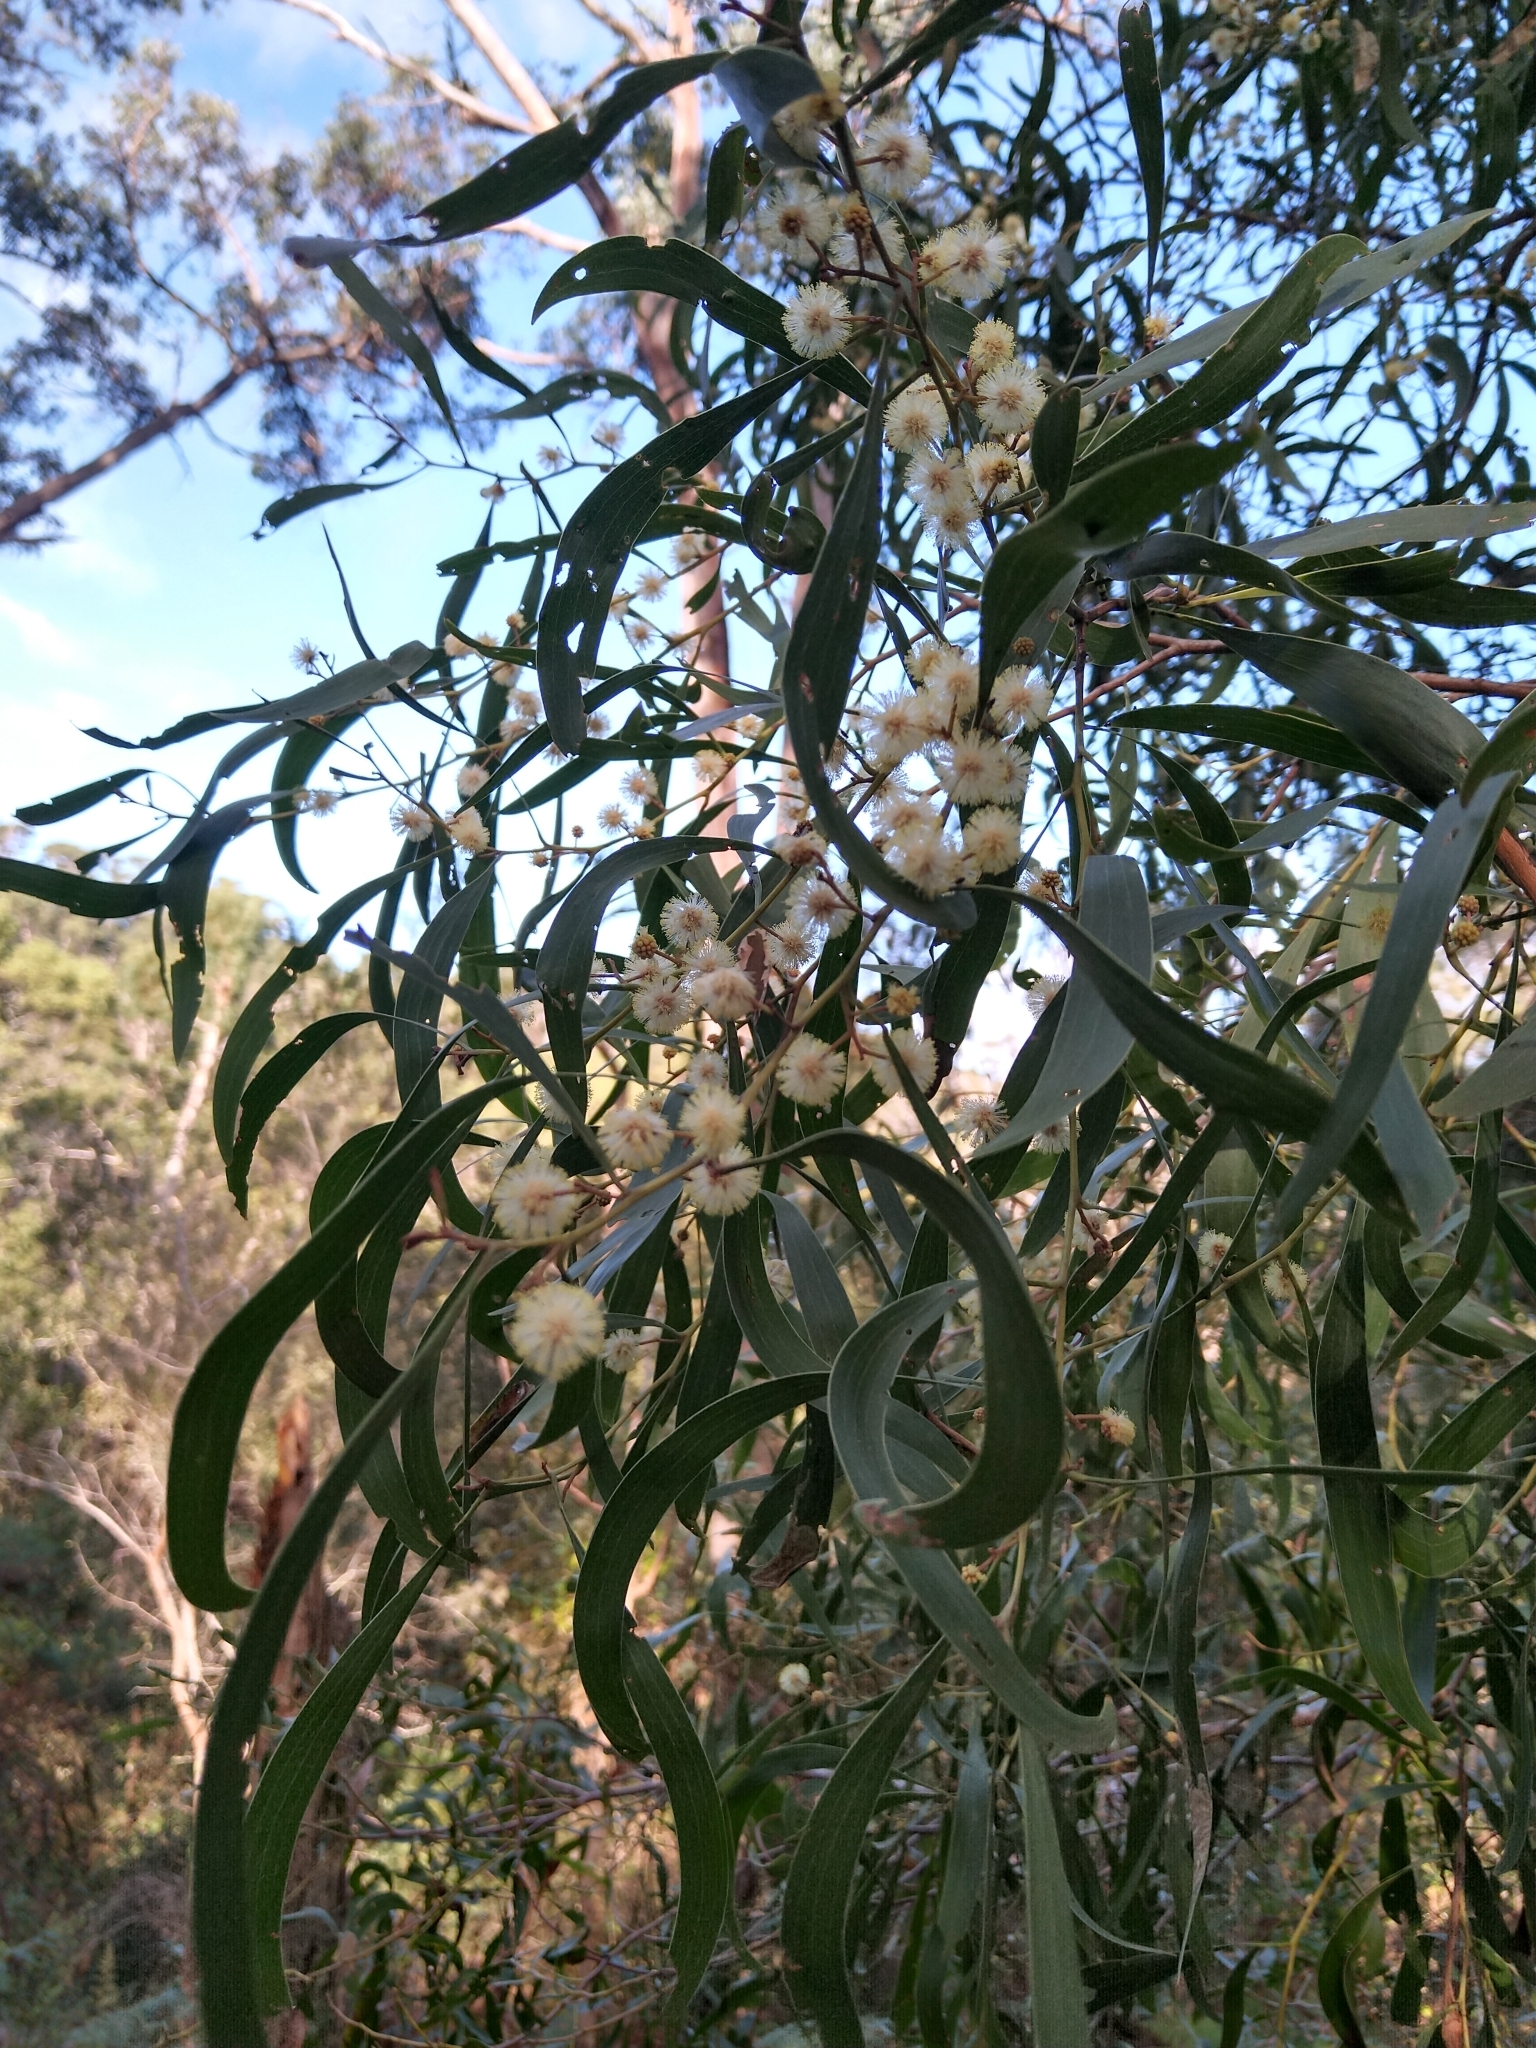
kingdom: Plantae
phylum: Tracheophyta
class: Magnoliopsida
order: Fabales
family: Fabaceae
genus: Acacia
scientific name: Acacia melanoxylon
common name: Blackwood
